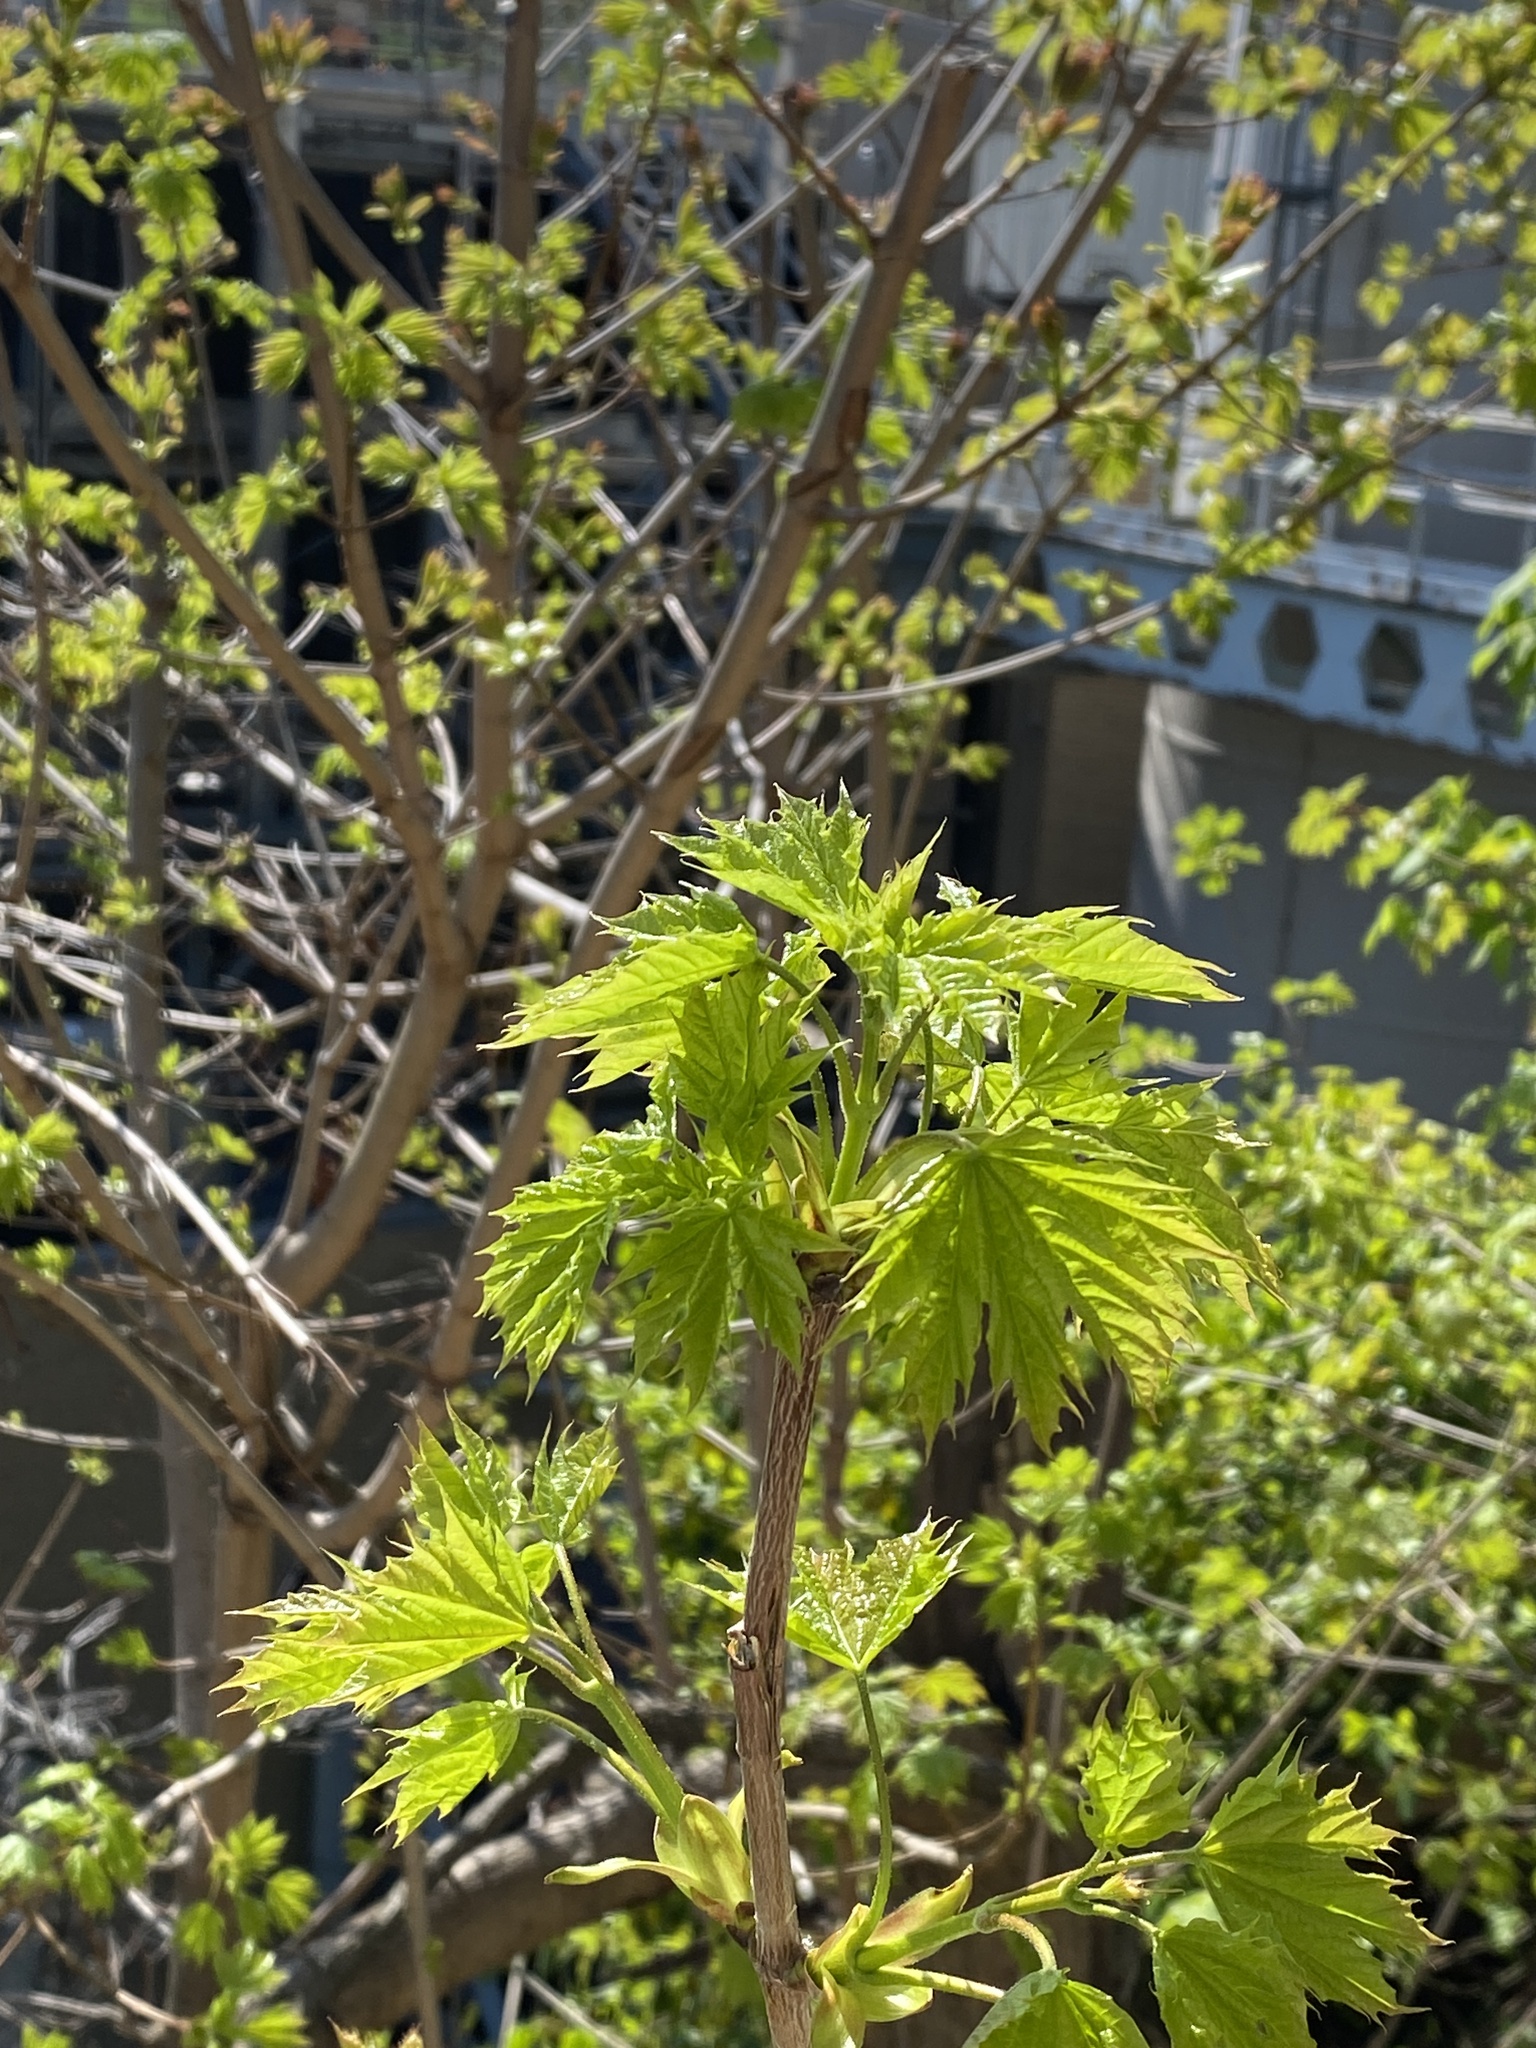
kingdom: Plantae
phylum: Tracheophyta
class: Magnoliopsida
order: Sapindales
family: Sapindaceae
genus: Acer
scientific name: Acer platanoides
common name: Norway maple
